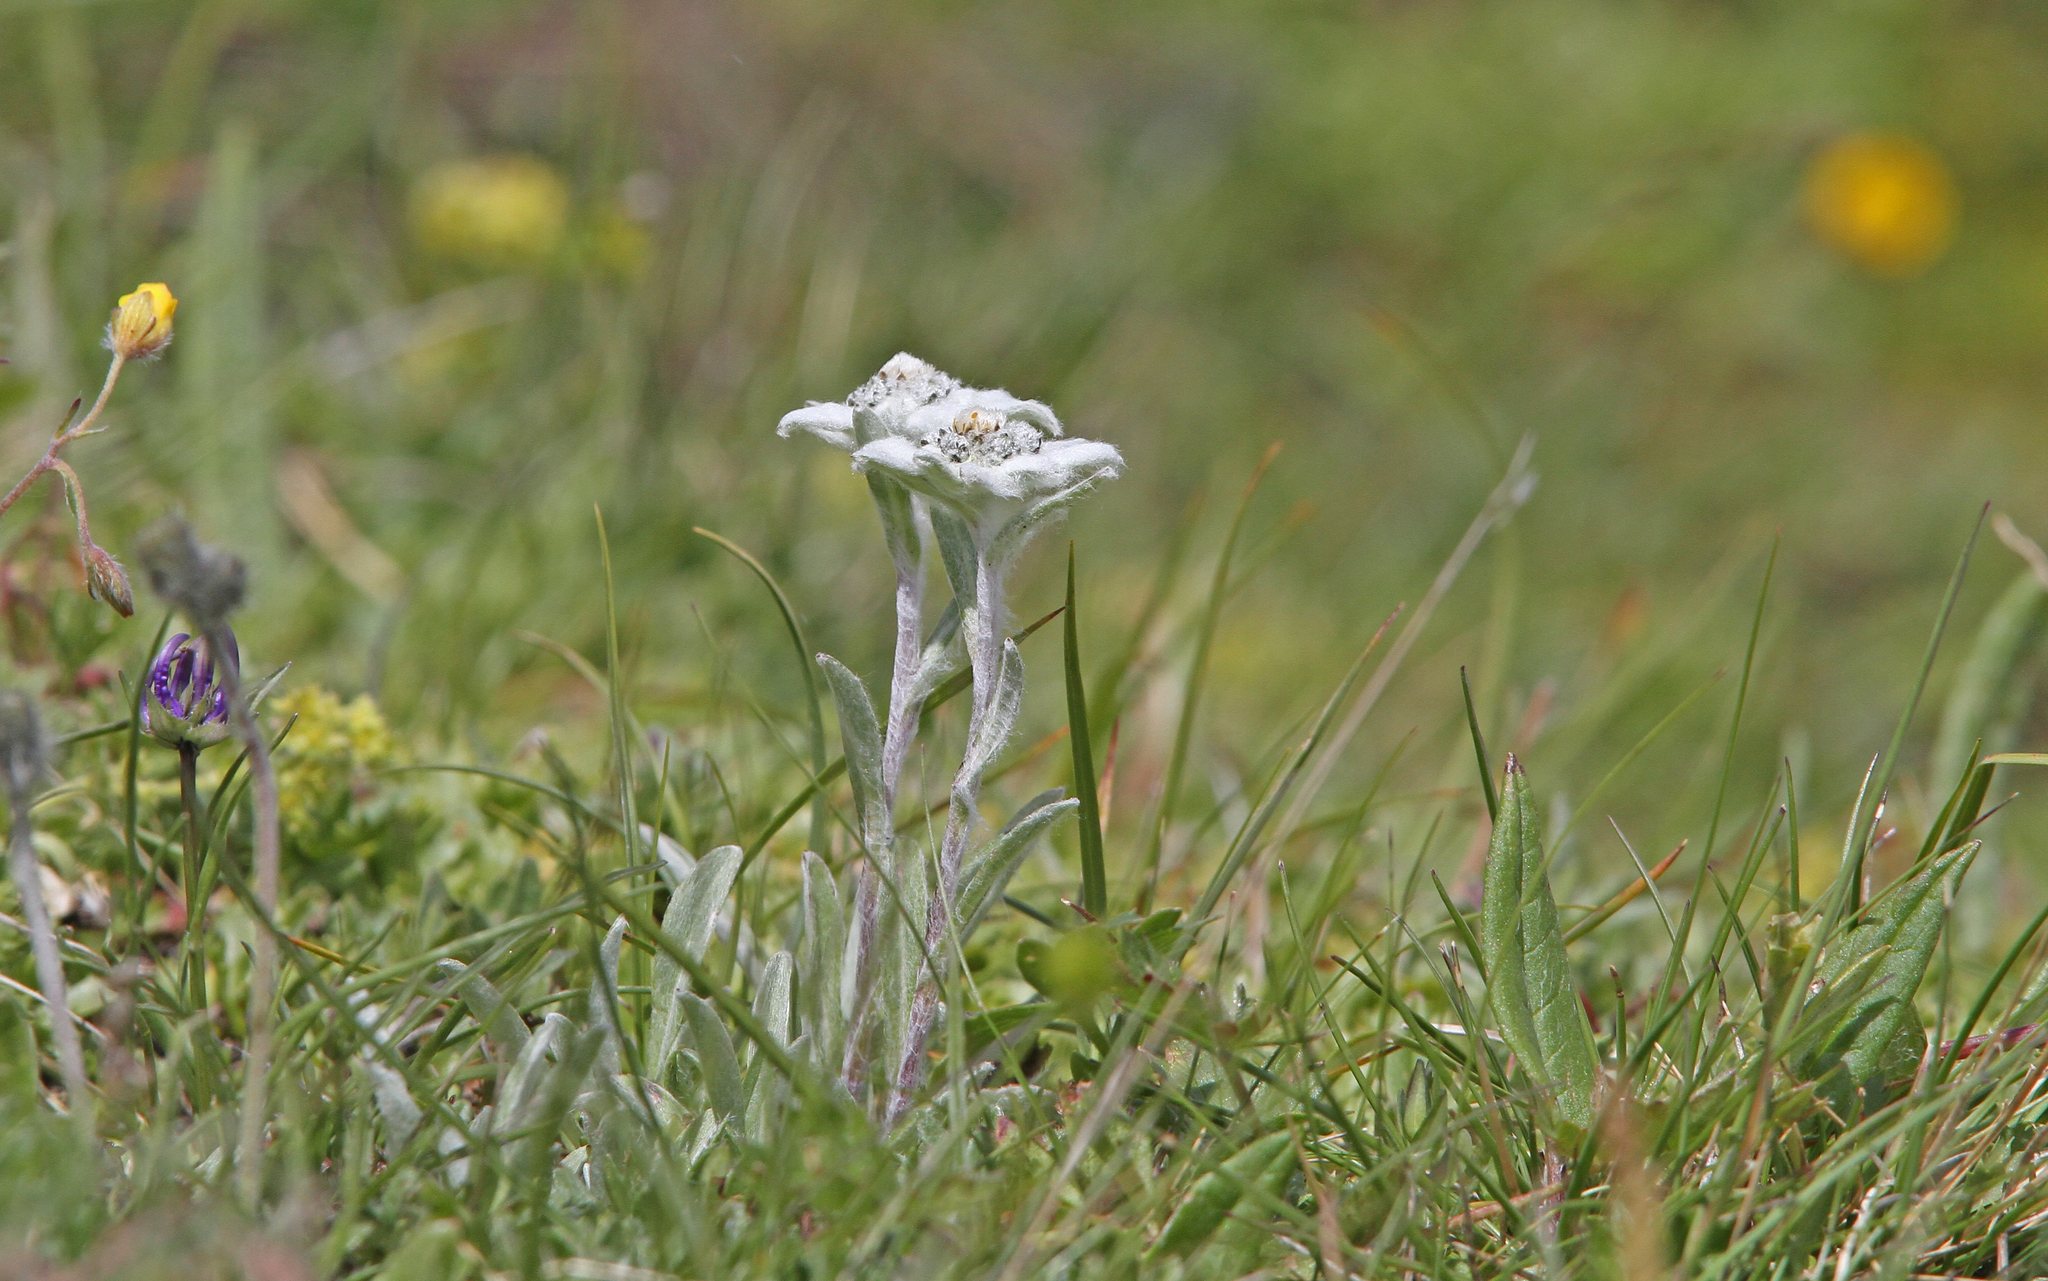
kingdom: Plantae
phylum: Tracheophyta
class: Magnoliopsida
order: Asterales
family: Asteraceae
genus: Leontopodium
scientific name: Leontopodium nivale
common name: Edelweiss
